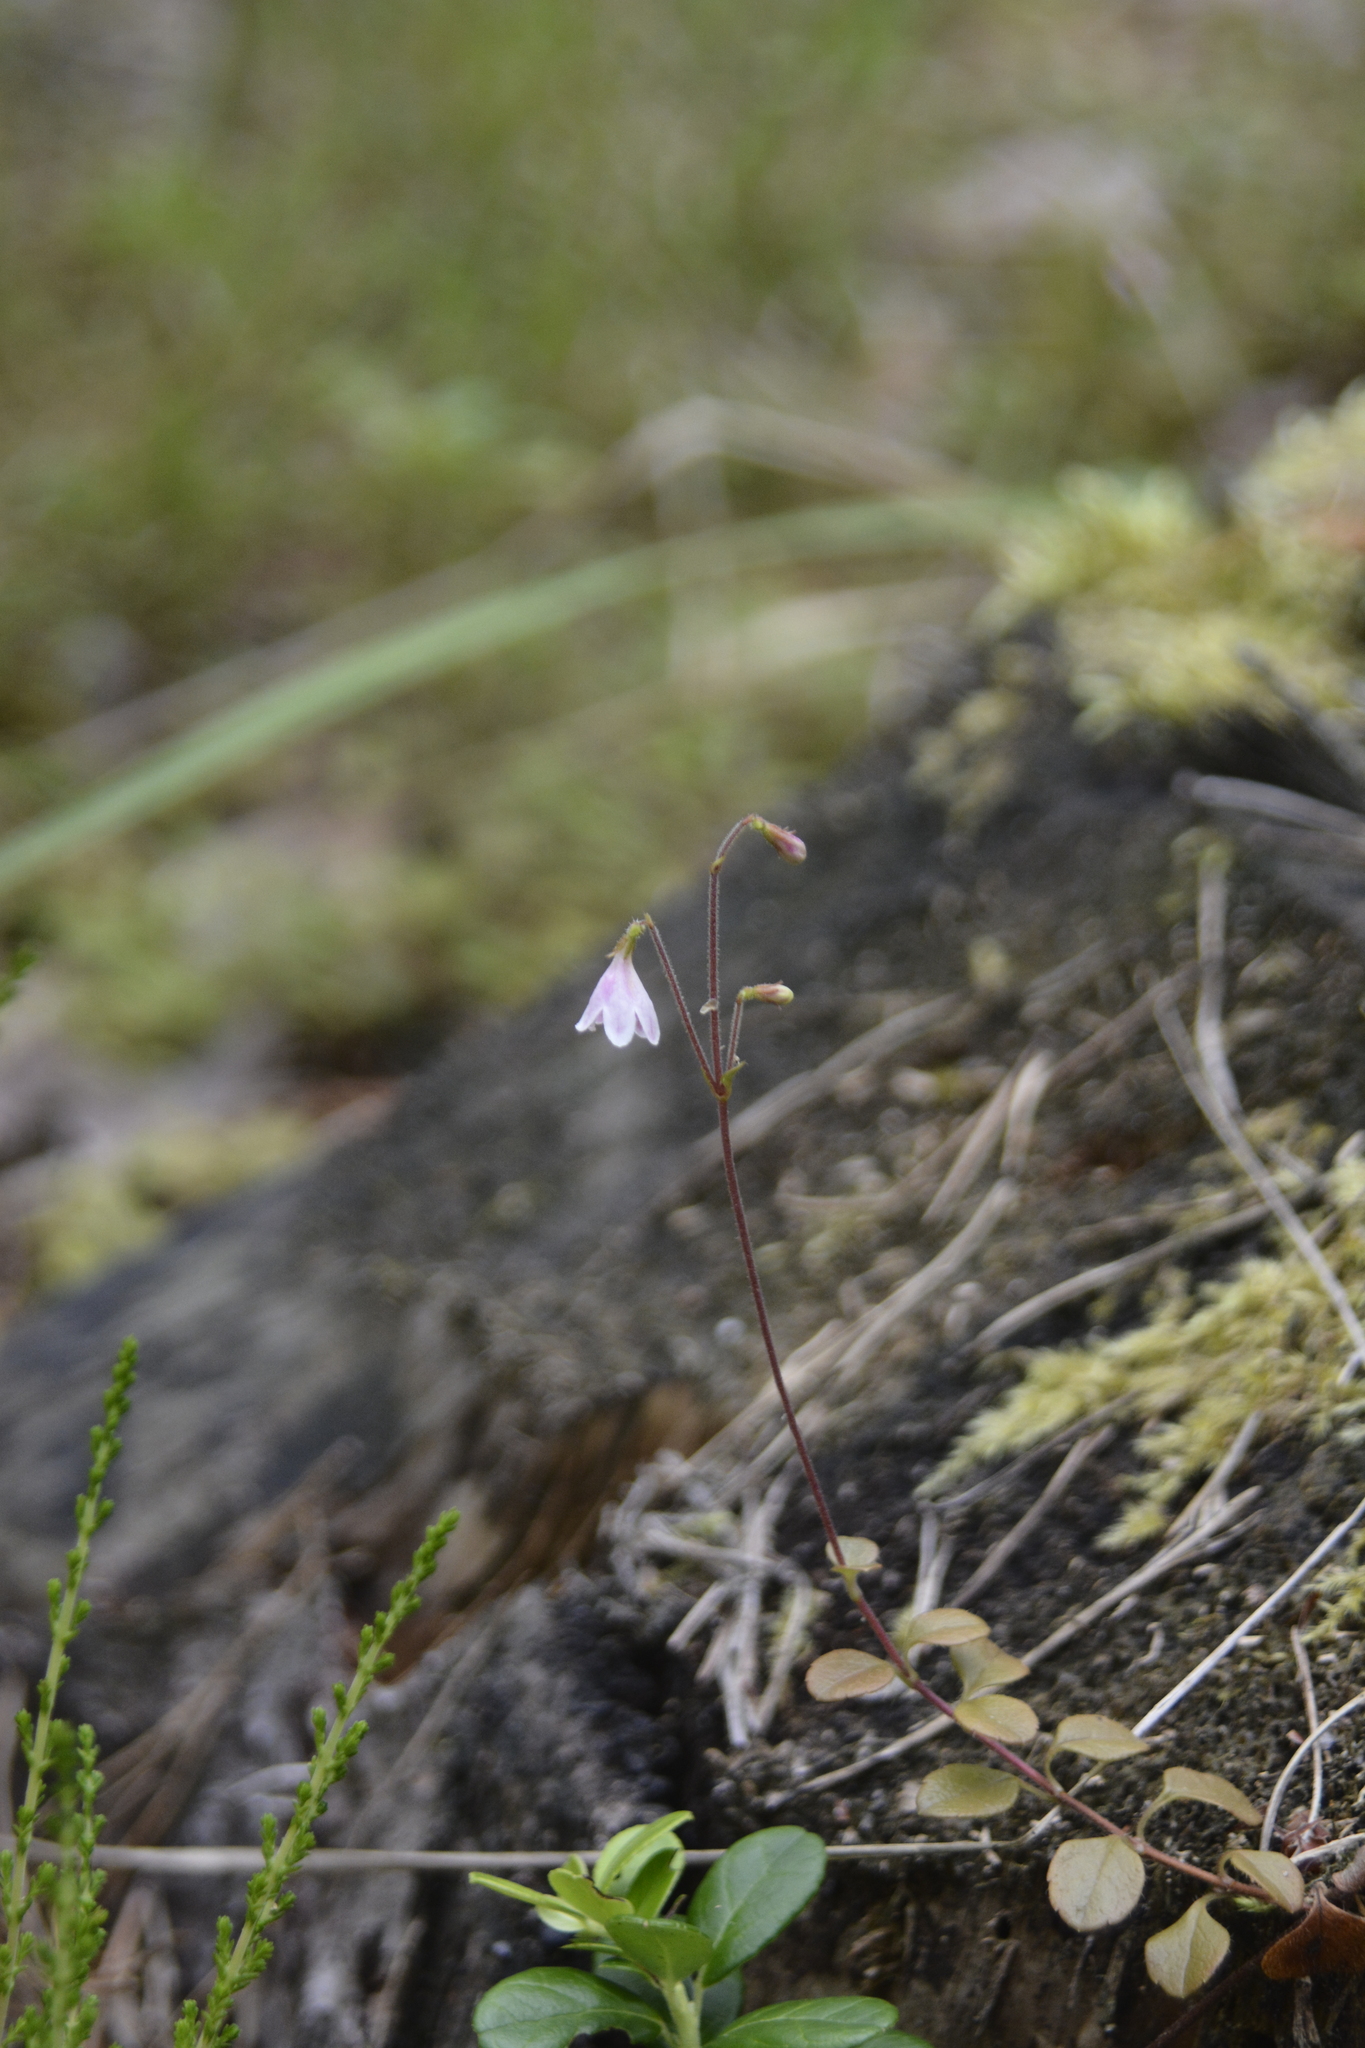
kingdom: Plantae
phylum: Tracheophyta
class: Magnoliopsida
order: Dipsacales
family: Caprifoliaceae
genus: Linnaea
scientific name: Linnaea borealis
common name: Twinflower
